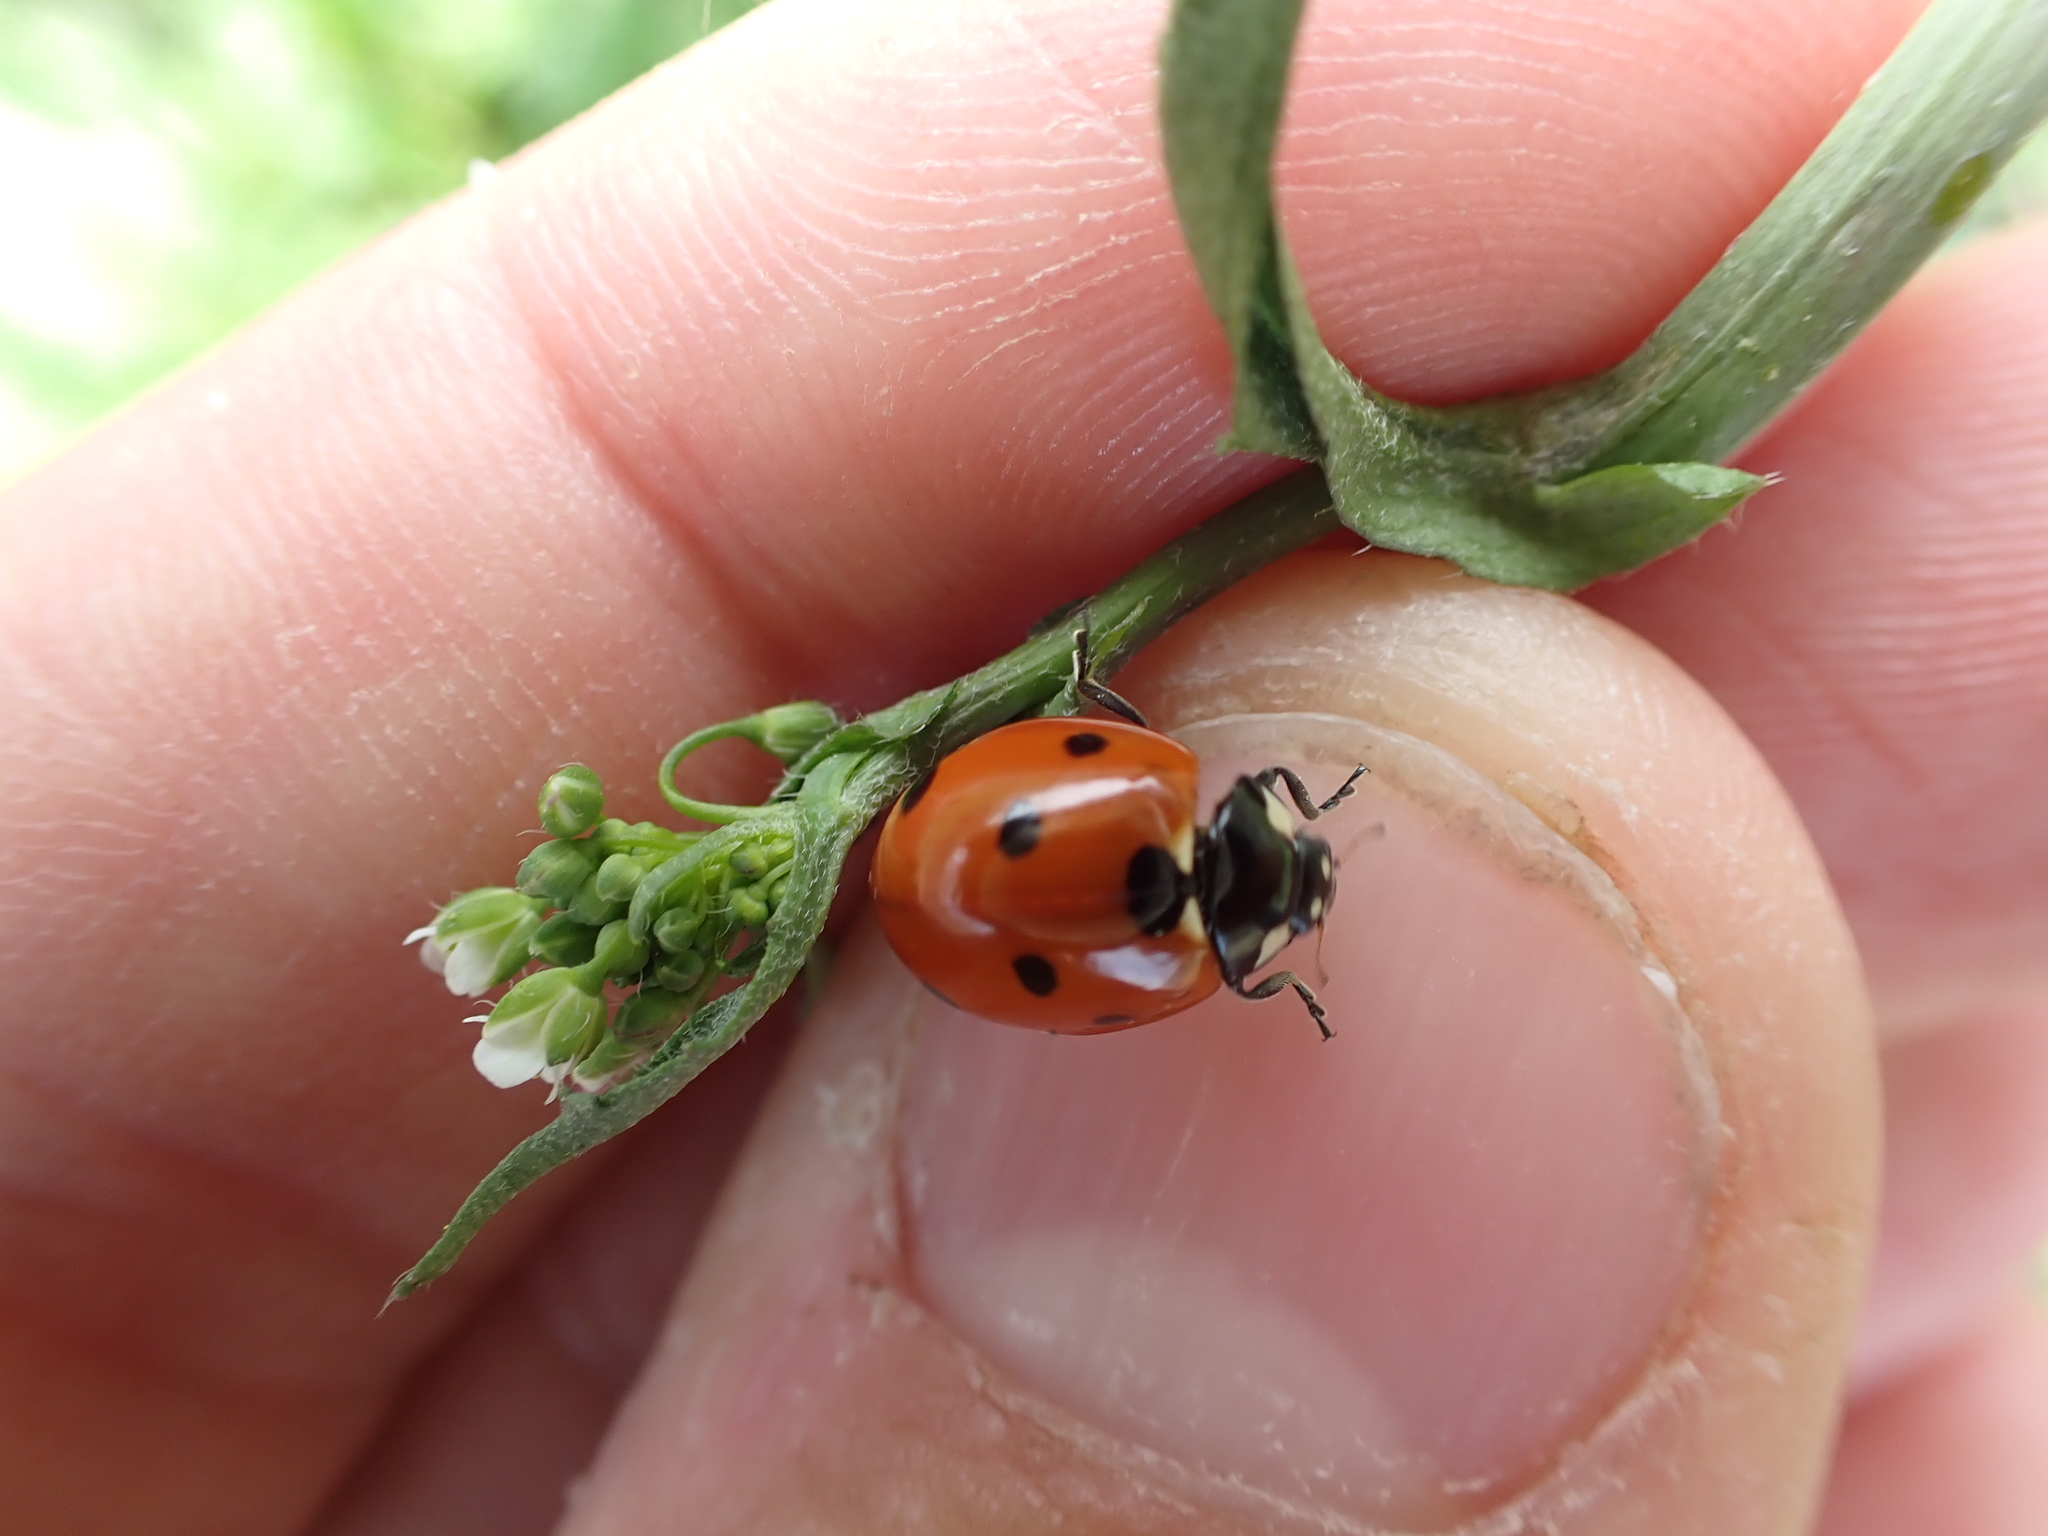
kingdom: Animalia
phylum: Arthropoda
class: Insecta
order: Coleoptera
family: Coccinellidae
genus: Coccinella
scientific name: Coccinella septempunctata
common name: Sevenspotted lady beetle
